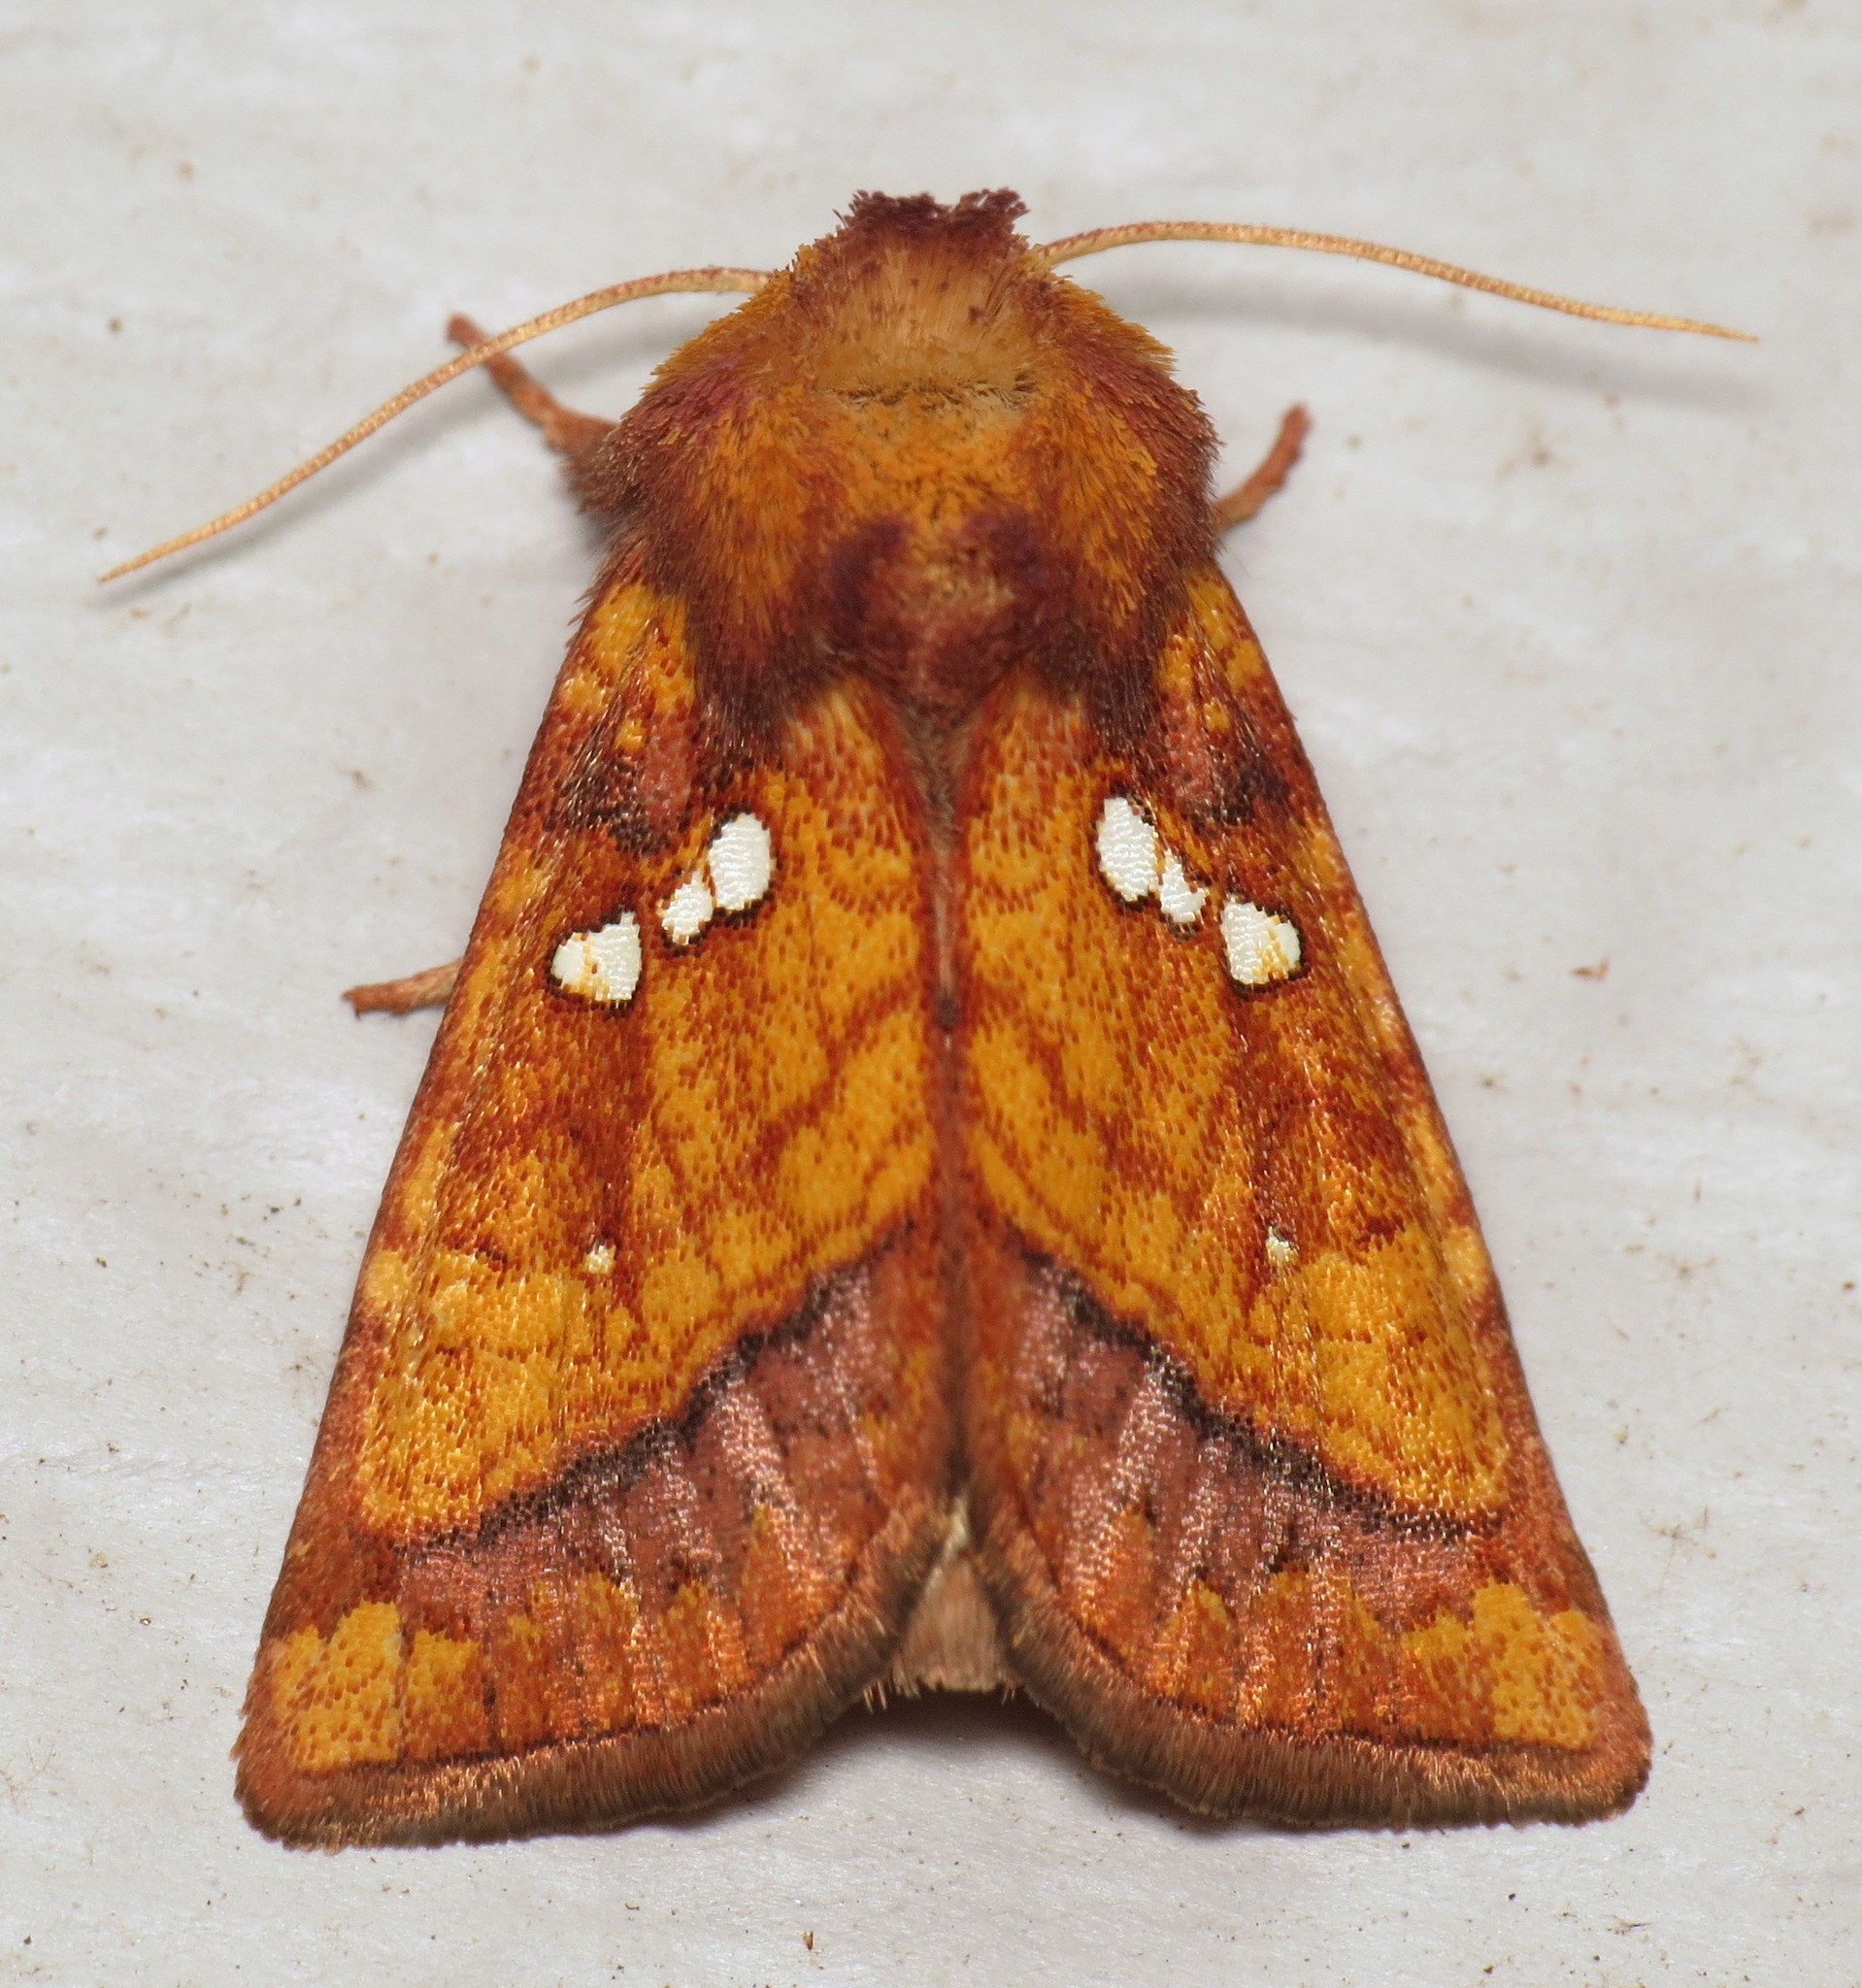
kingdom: Animalia
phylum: Arthropoda
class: Insecta
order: Lepidoptera
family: Noctuidae
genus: Papaipema
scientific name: Papaipema lysimachiae
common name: Loosestrife borer moth
